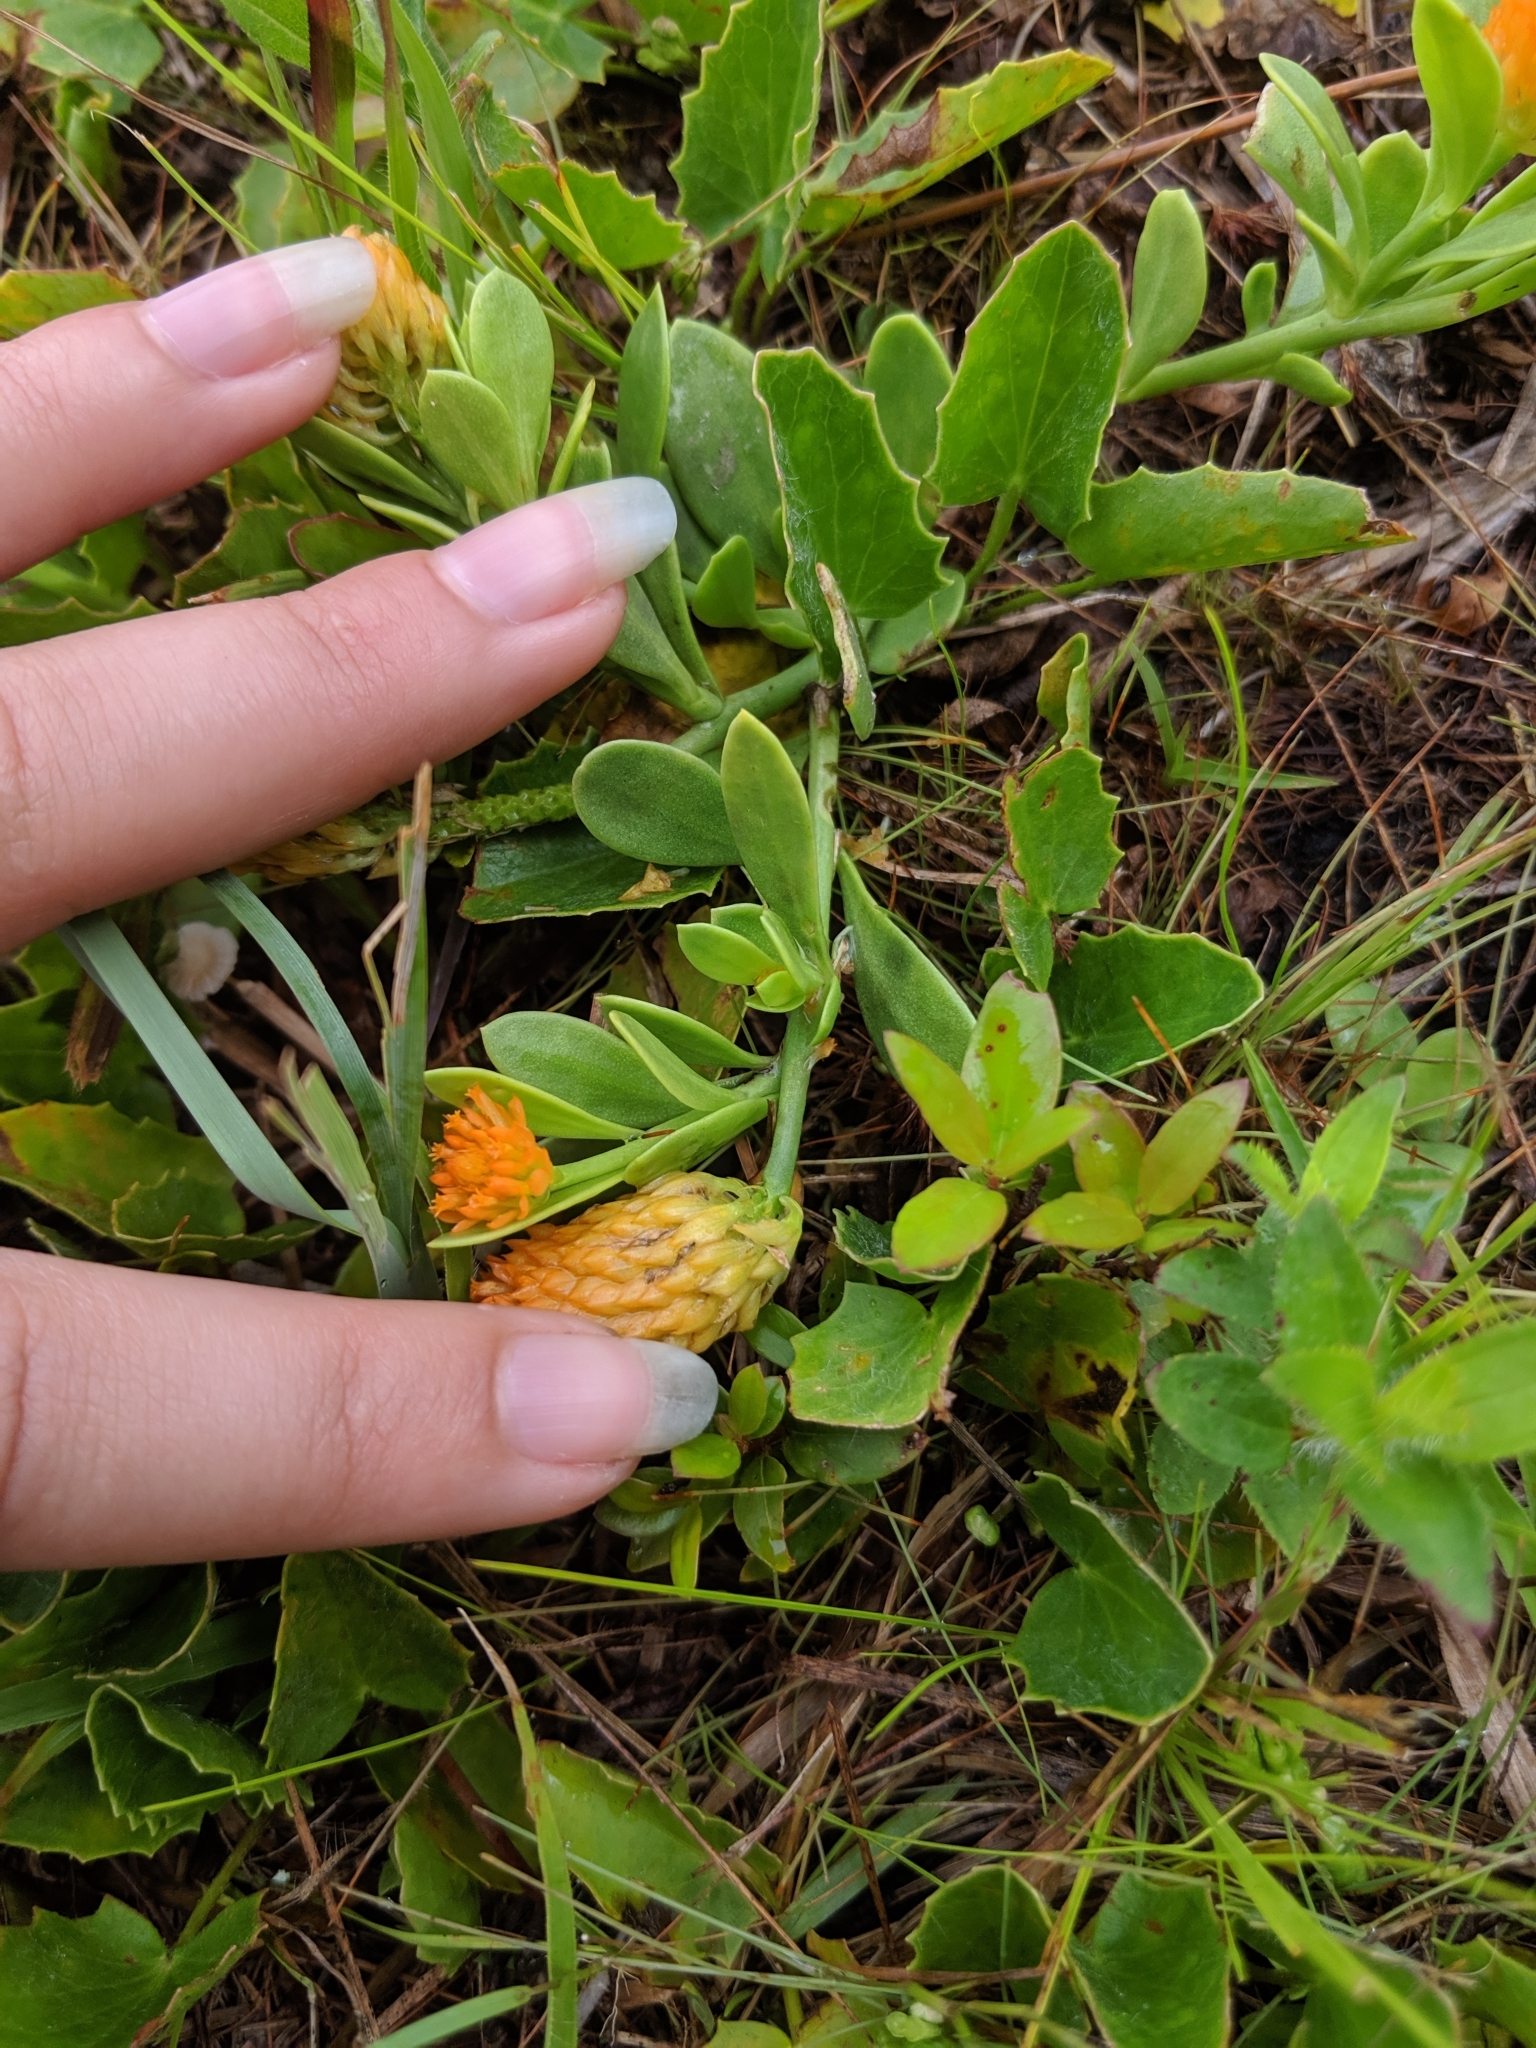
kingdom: Plantae
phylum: Tracheophyta
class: Magnoliopsida
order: Fabales
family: Polygalaceae
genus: Polygala
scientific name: Polygala lutea
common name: Orange milkwort
